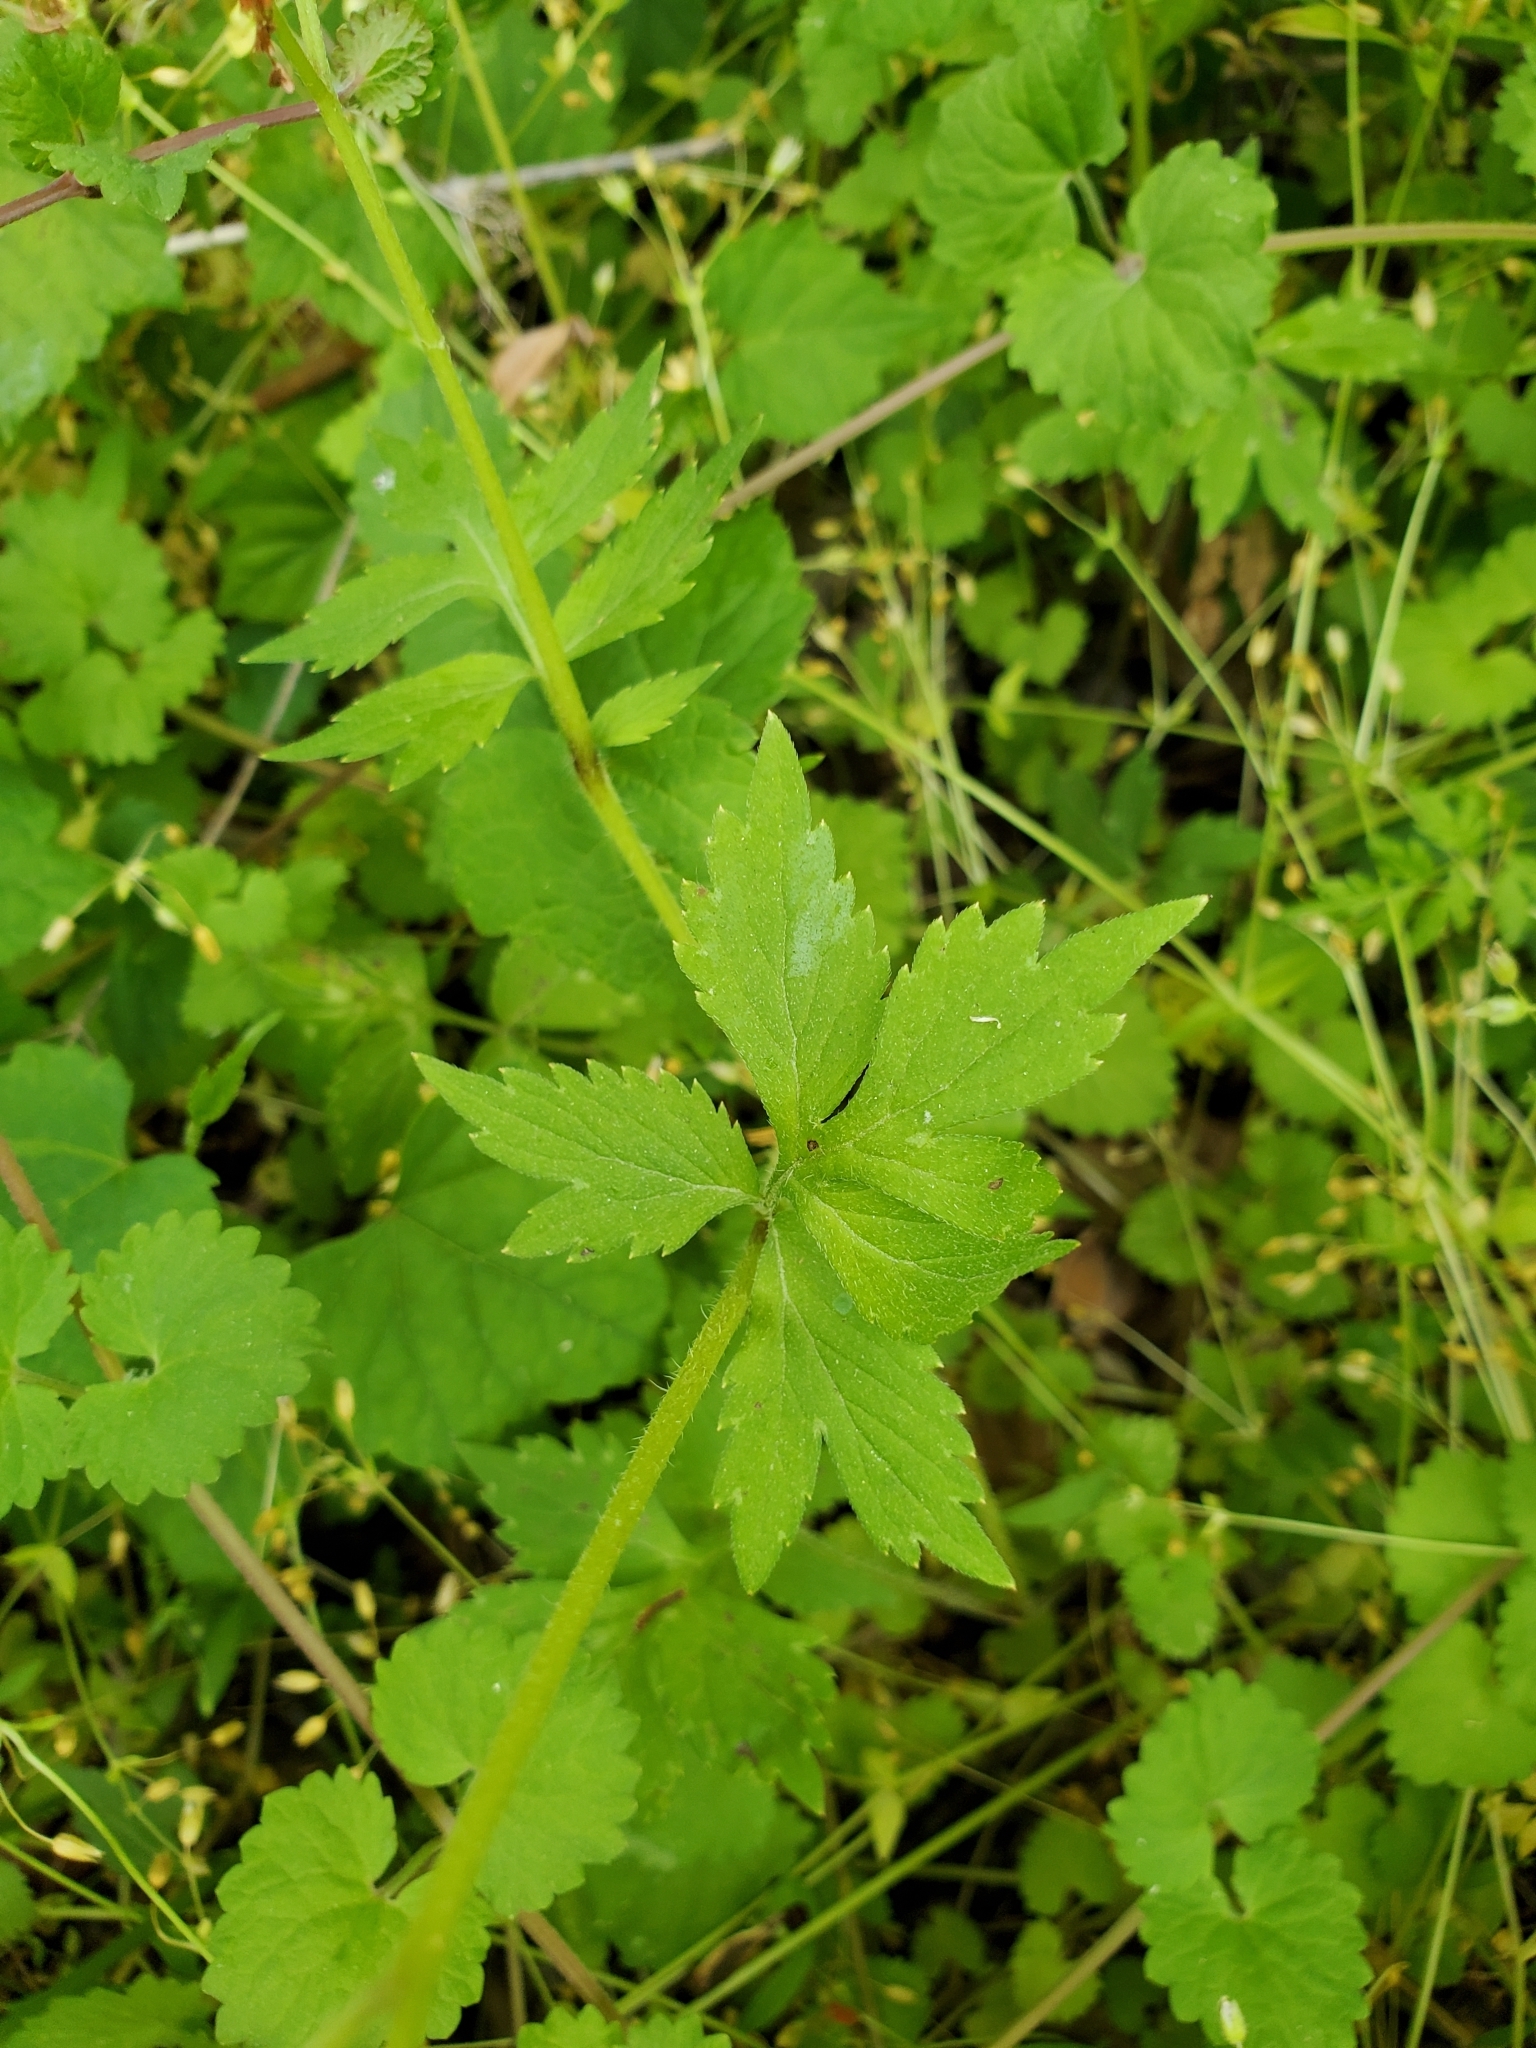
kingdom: Plantae
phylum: Tracheophyta
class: Magnoliopsida
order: Boraginales
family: Hydrophyllaceae
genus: Hydrophyllum
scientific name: Hydrophyllum virginianum
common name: Virginia waterleaf
